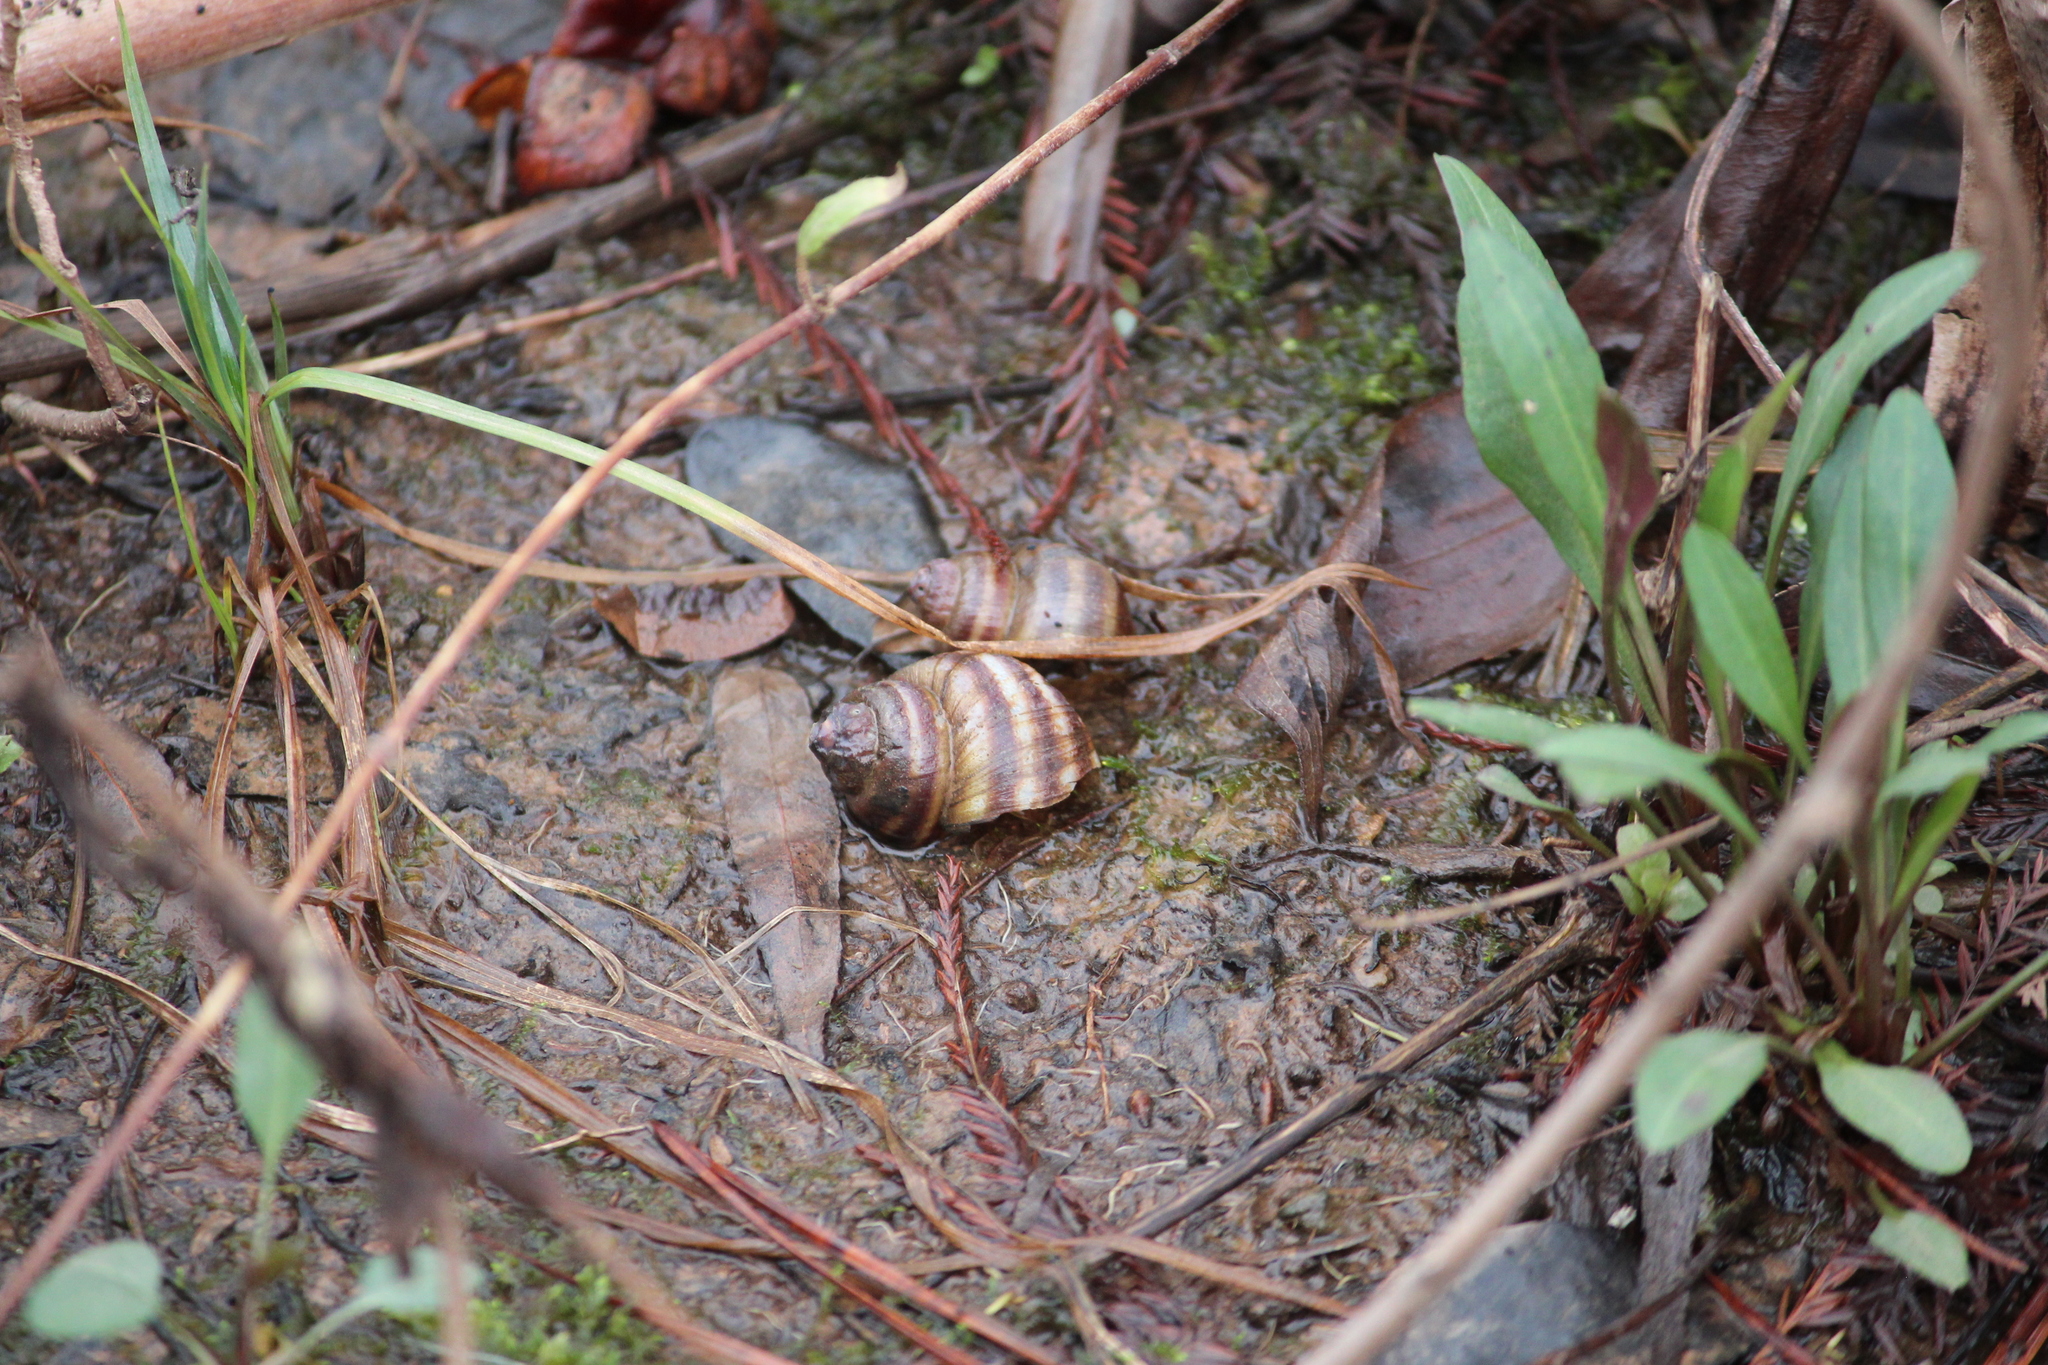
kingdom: Animalia
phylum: Mollusca
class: Gastropoda
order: Architaenioglossa
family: Viviparidae
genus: Callinina
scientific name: Callinina georgiana
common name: Banded mystery snail
